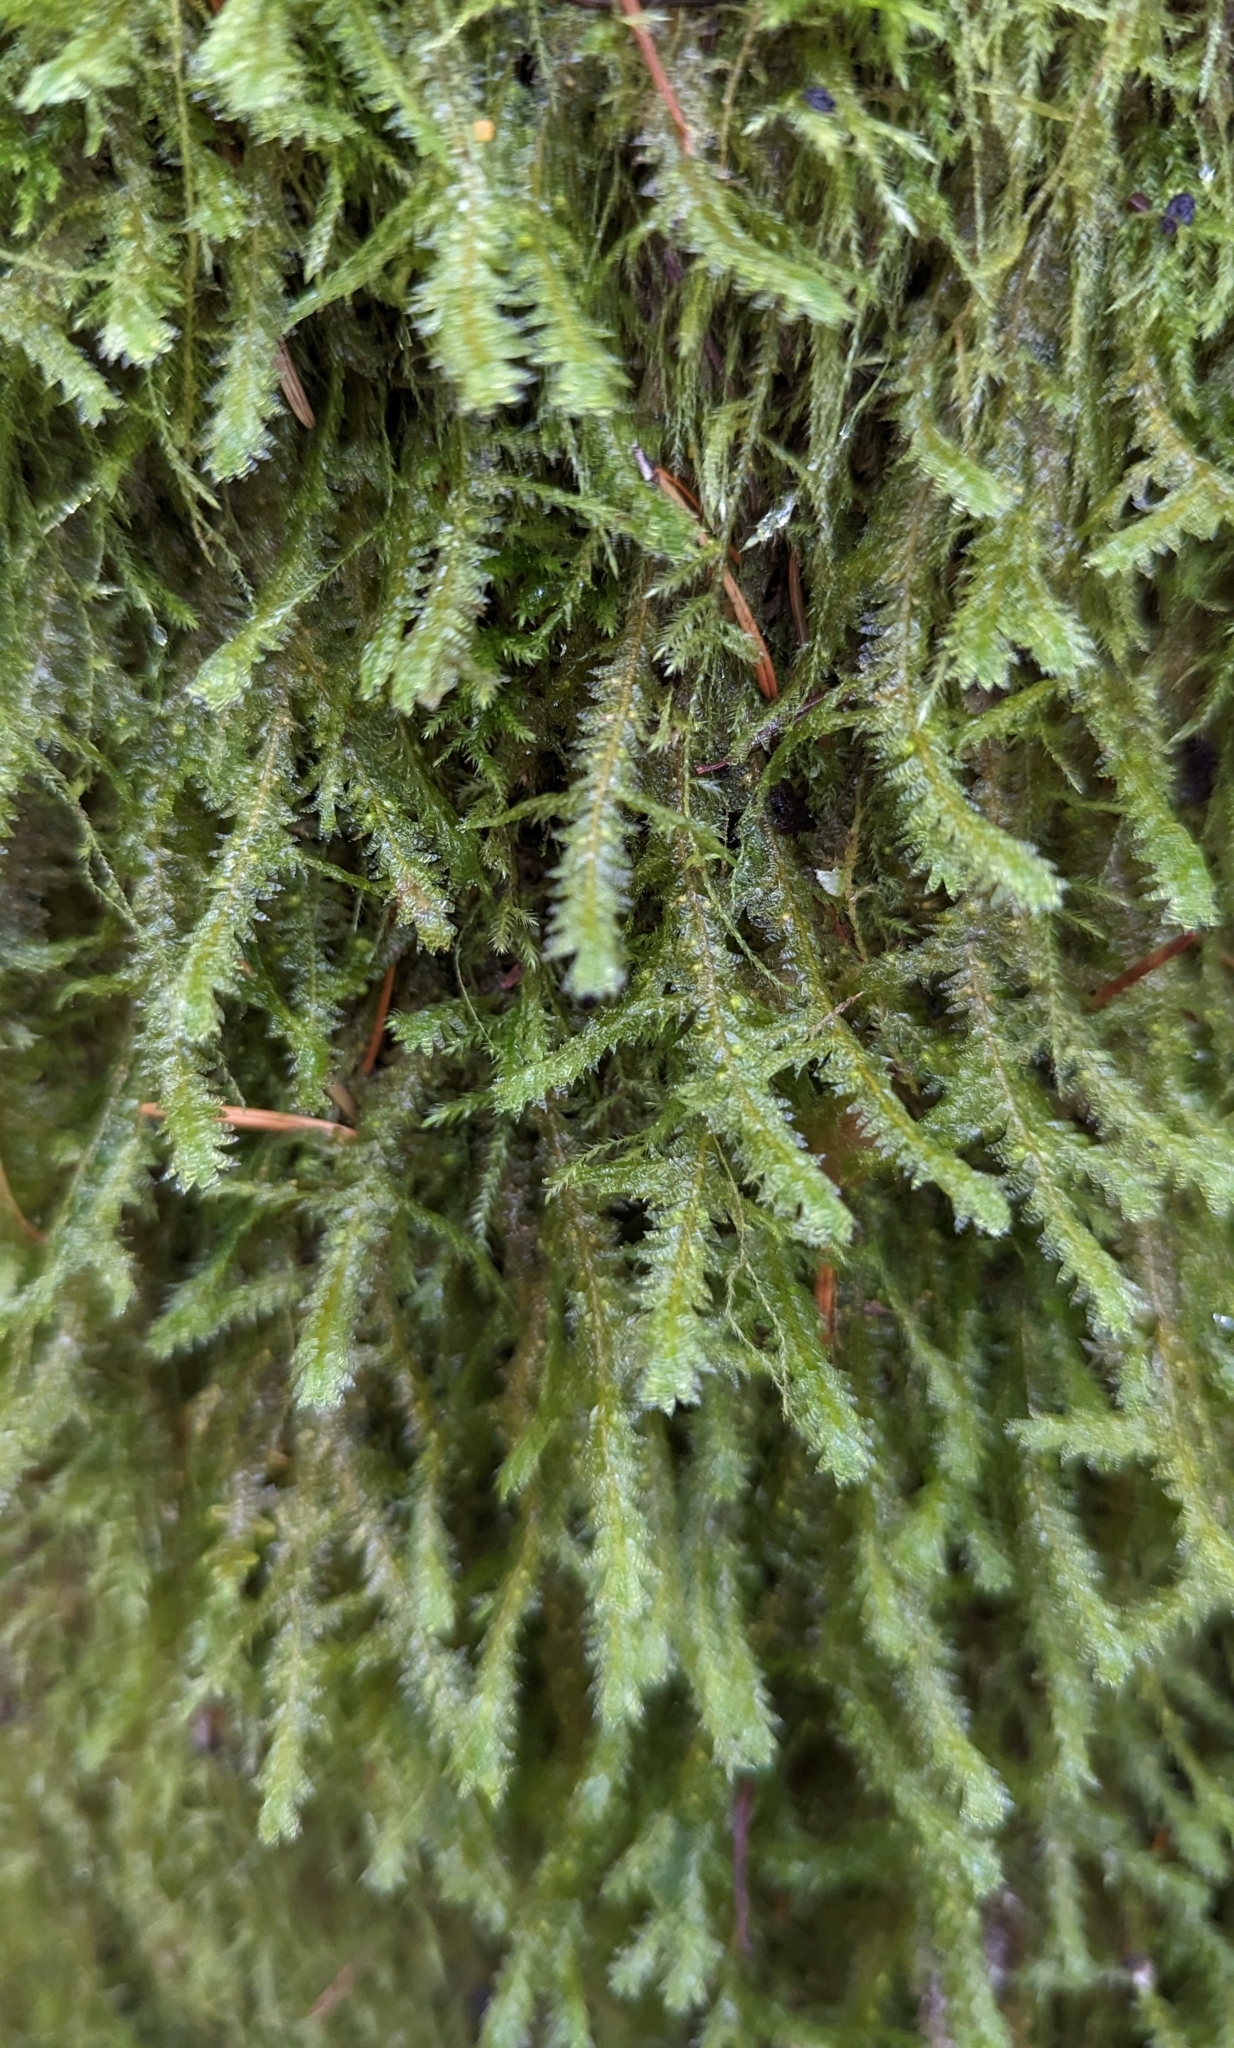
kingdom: Plantae
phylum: Bryophyta
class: Bryopsida
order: Hypnales
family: Neckeraceae
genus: Neckera
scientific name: Neckera douglasii
